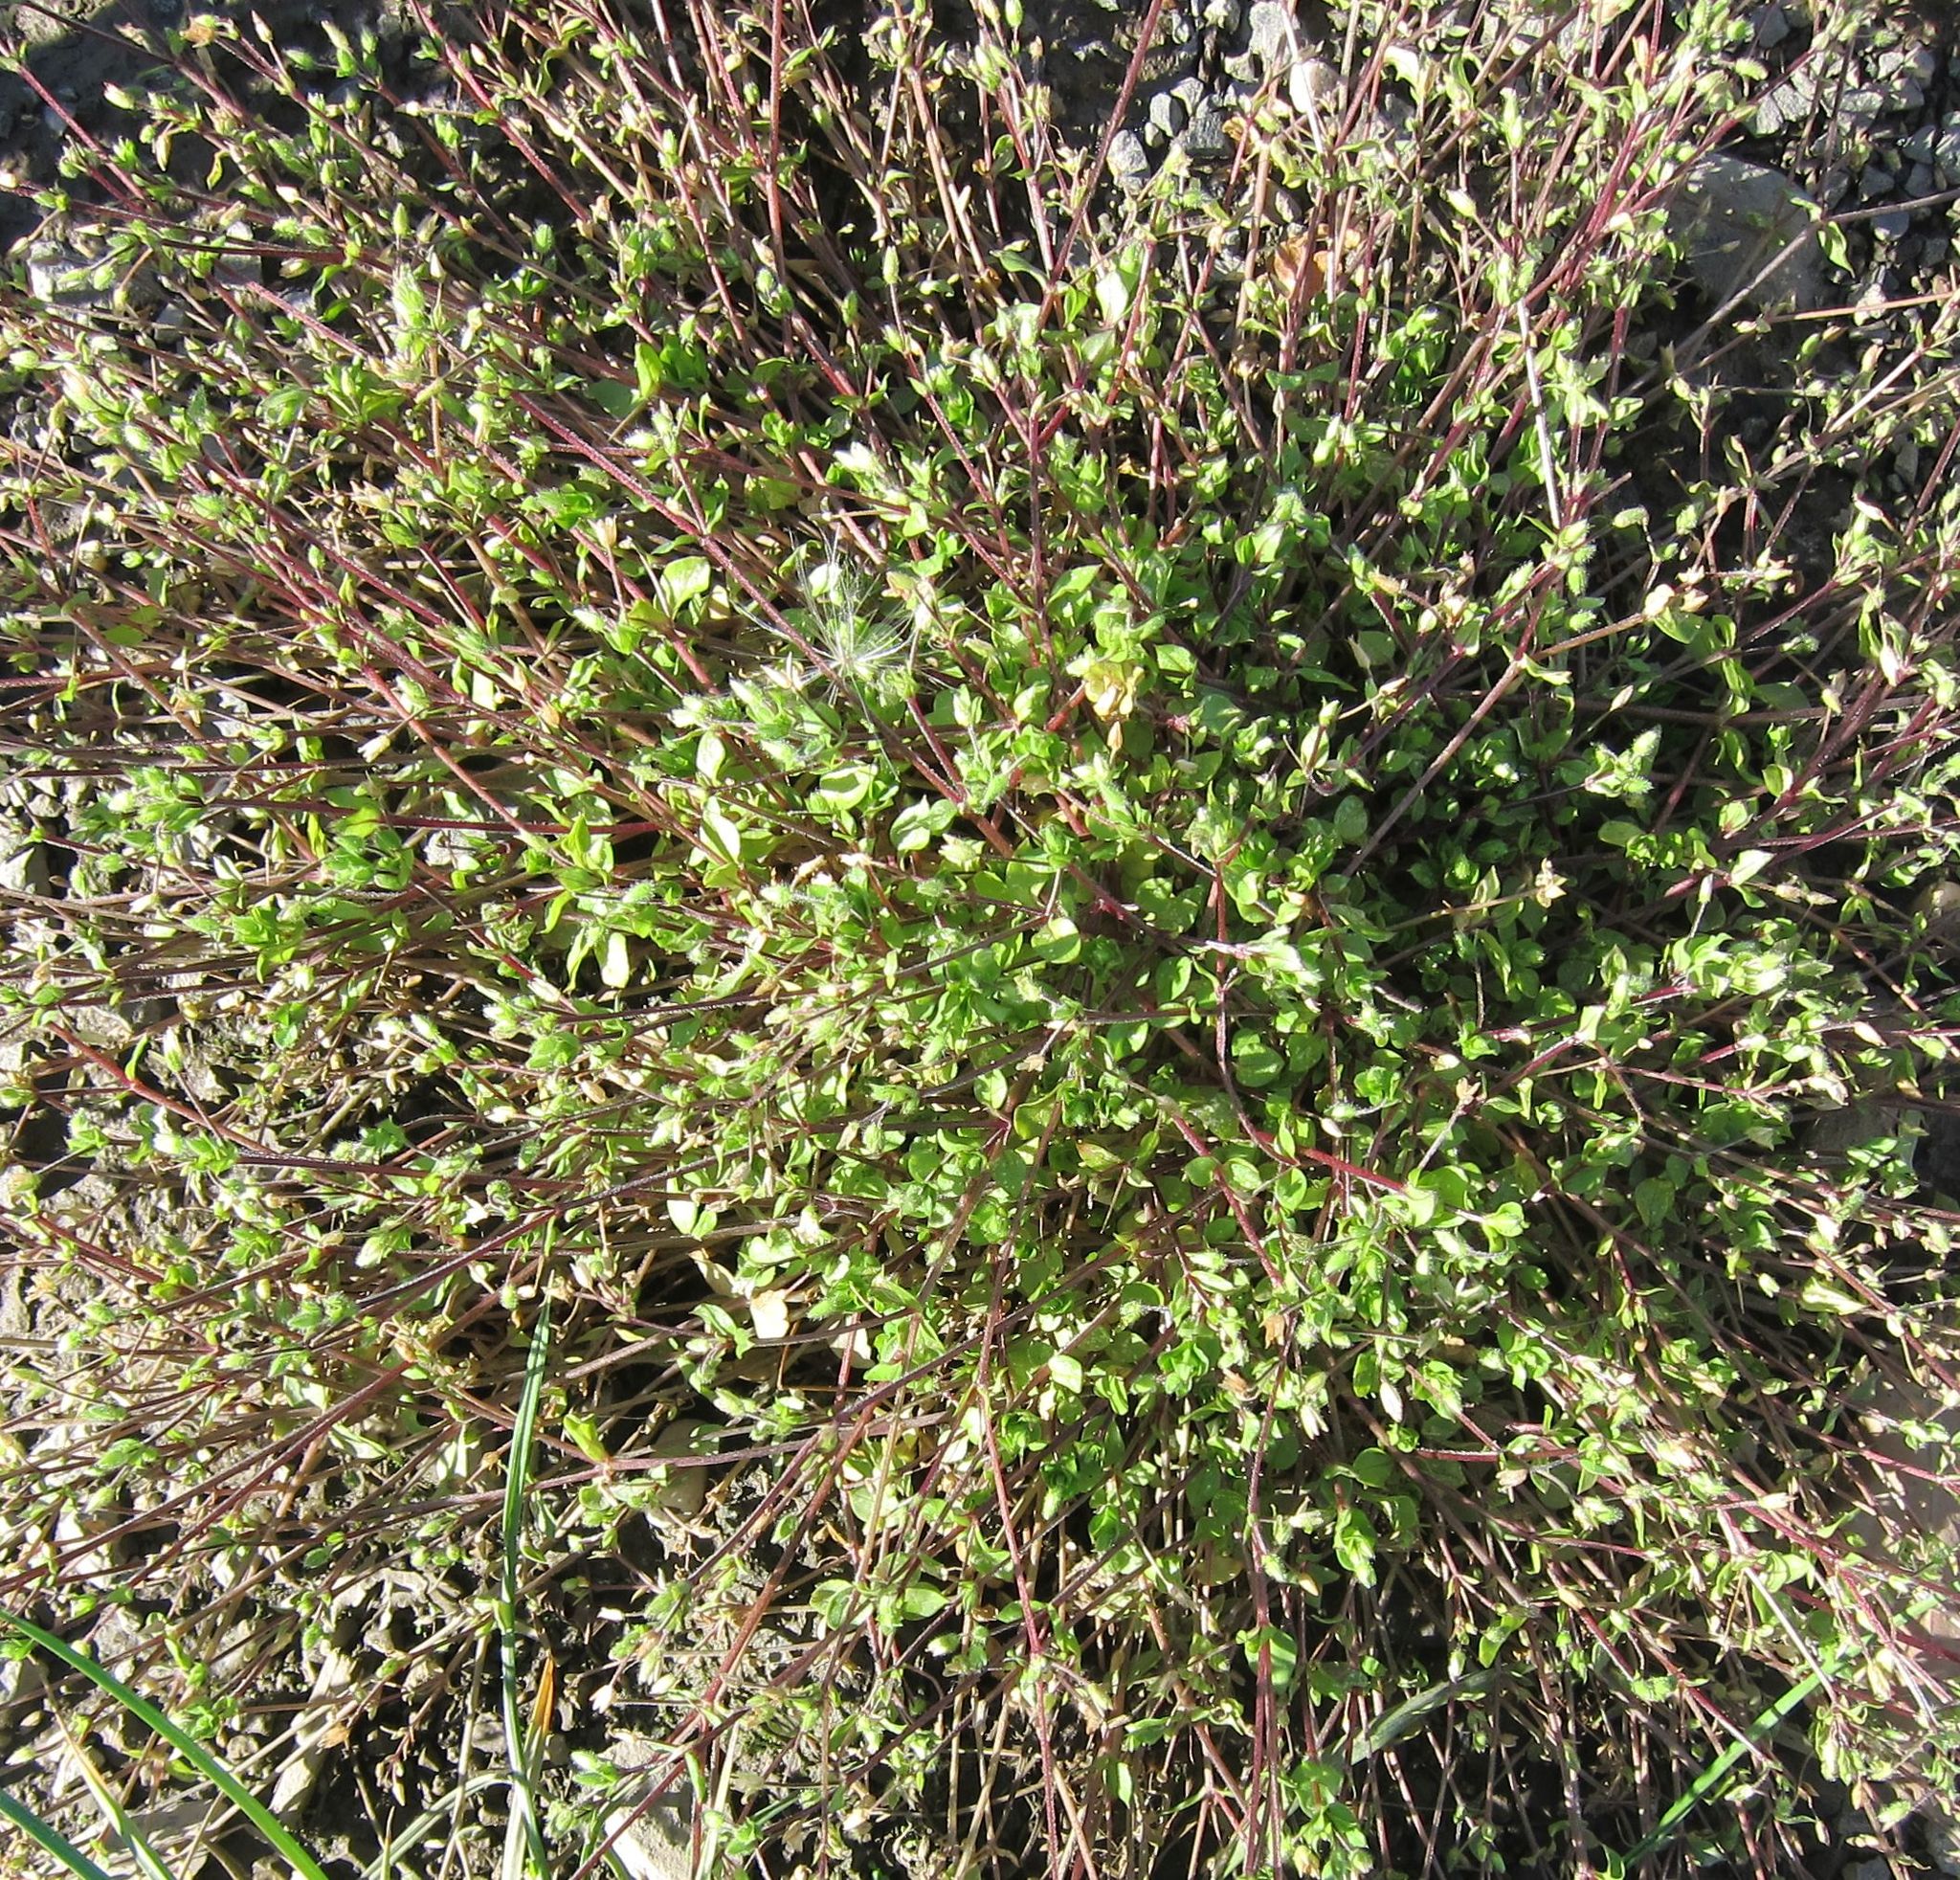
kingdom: Plantae
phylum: Tracheophyta
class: Magnoliopsida
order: Caryophyllales
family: Caryophyllaceae
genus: Stellaria
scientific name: Stellaria media
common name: Common chickweed
